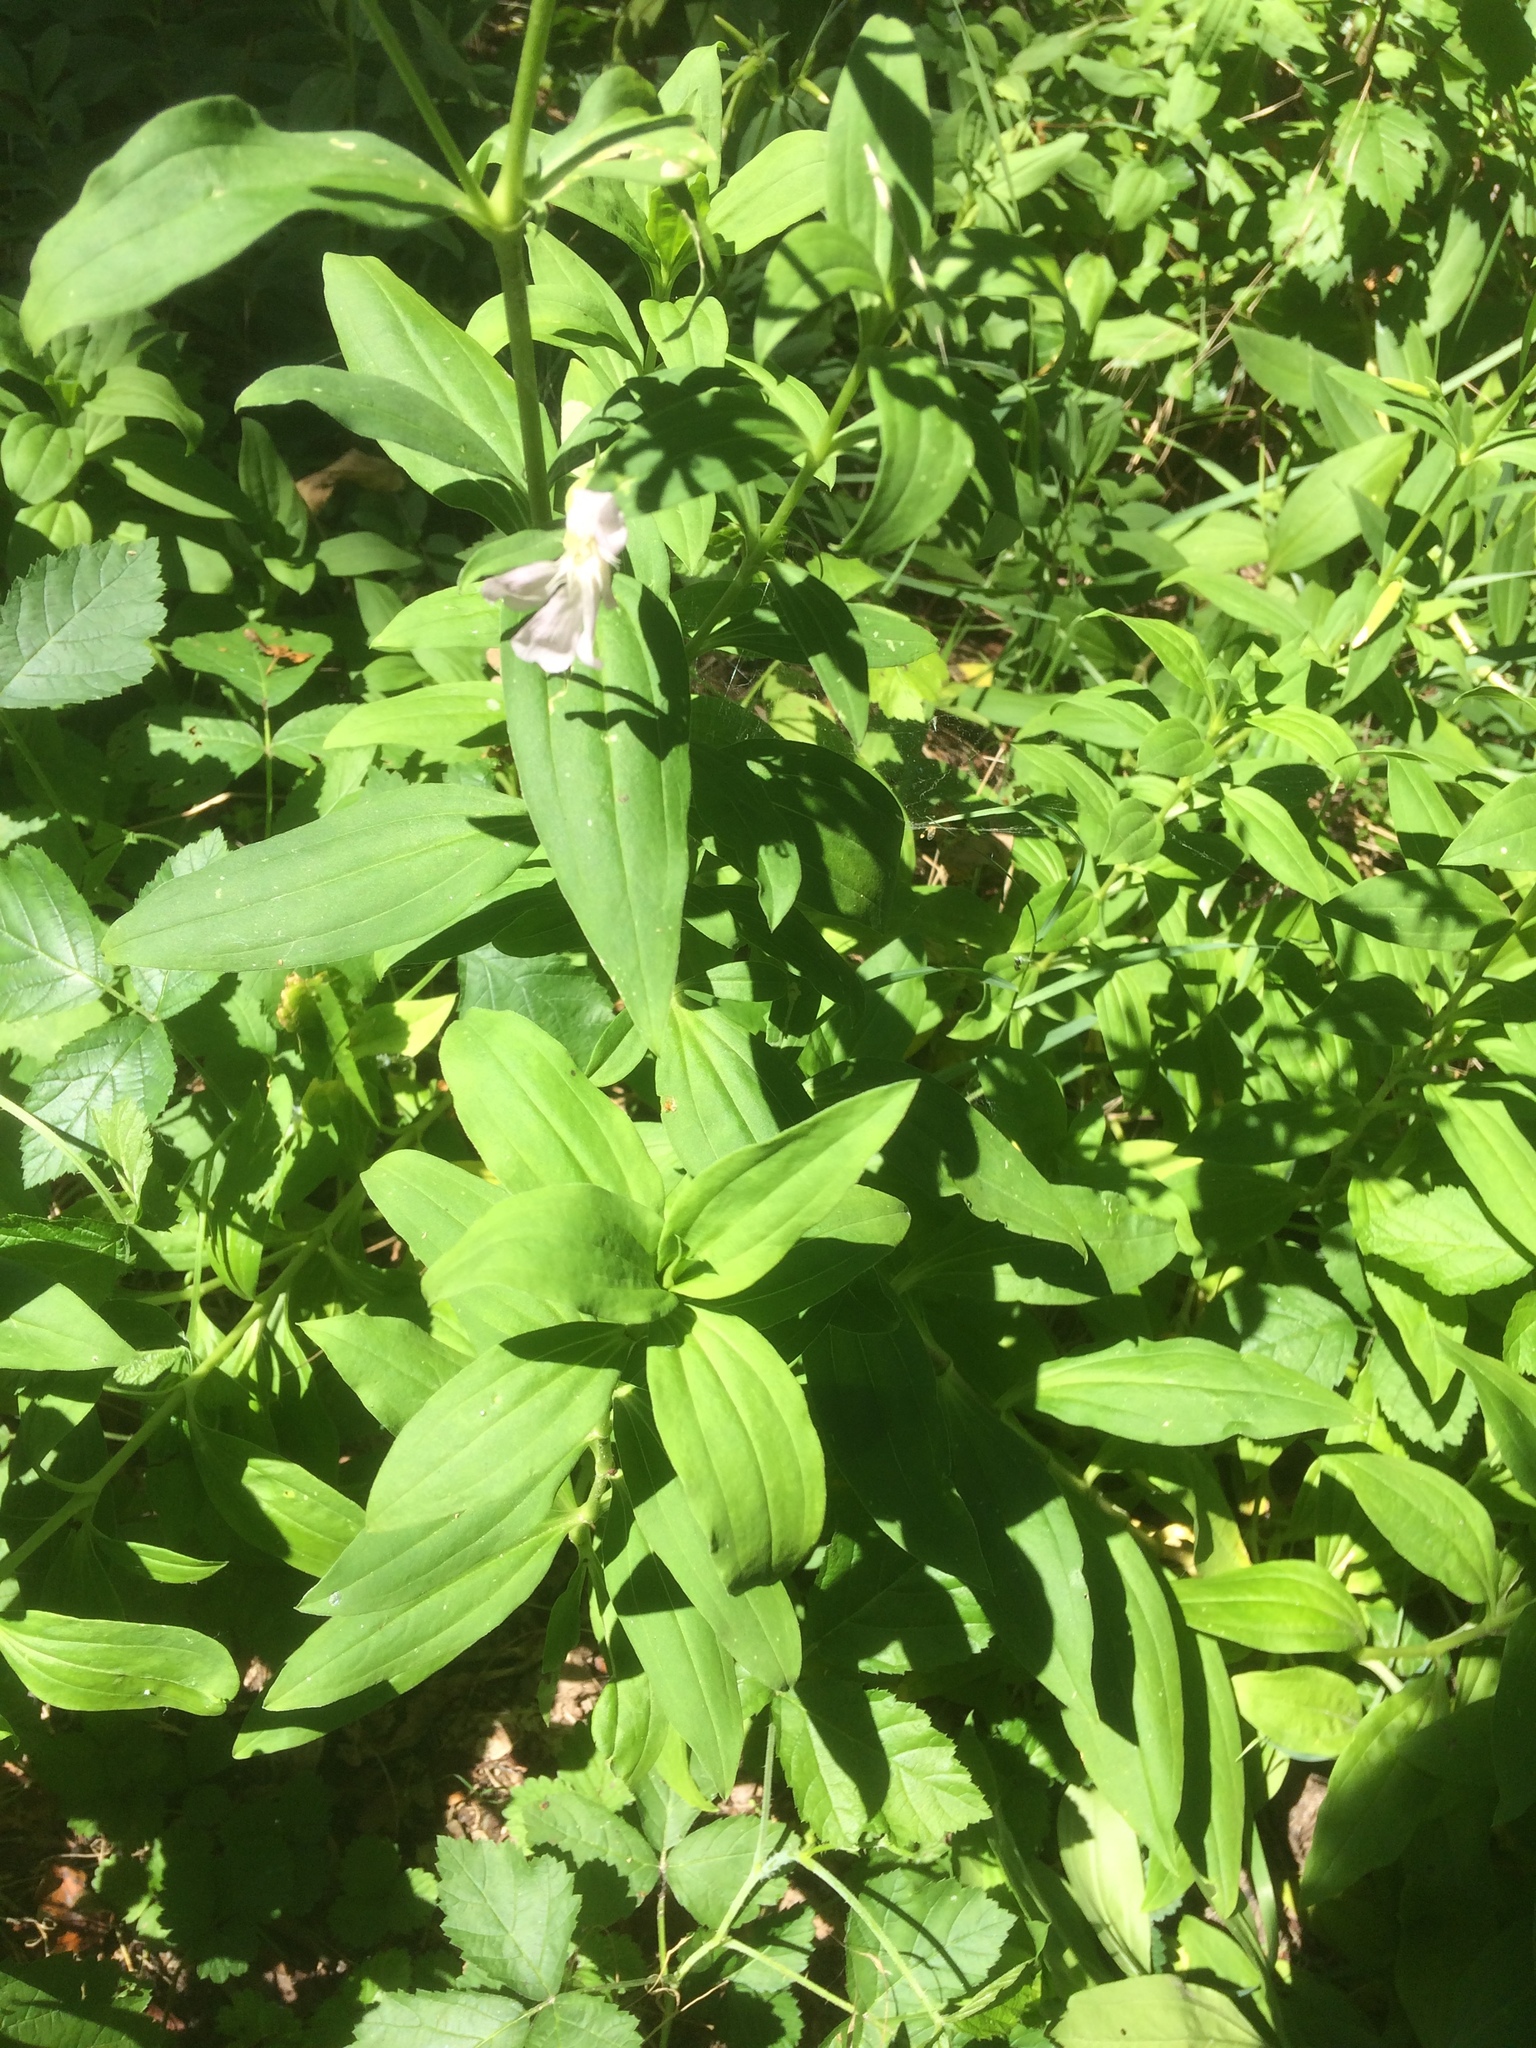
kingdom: Plantae
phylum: Tracheophyta
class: Magnoliopsida
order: Caryophyllales
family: Caryophyllaceae
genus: Saponaria
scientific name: Saponaria officinalis
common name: Soapwort
